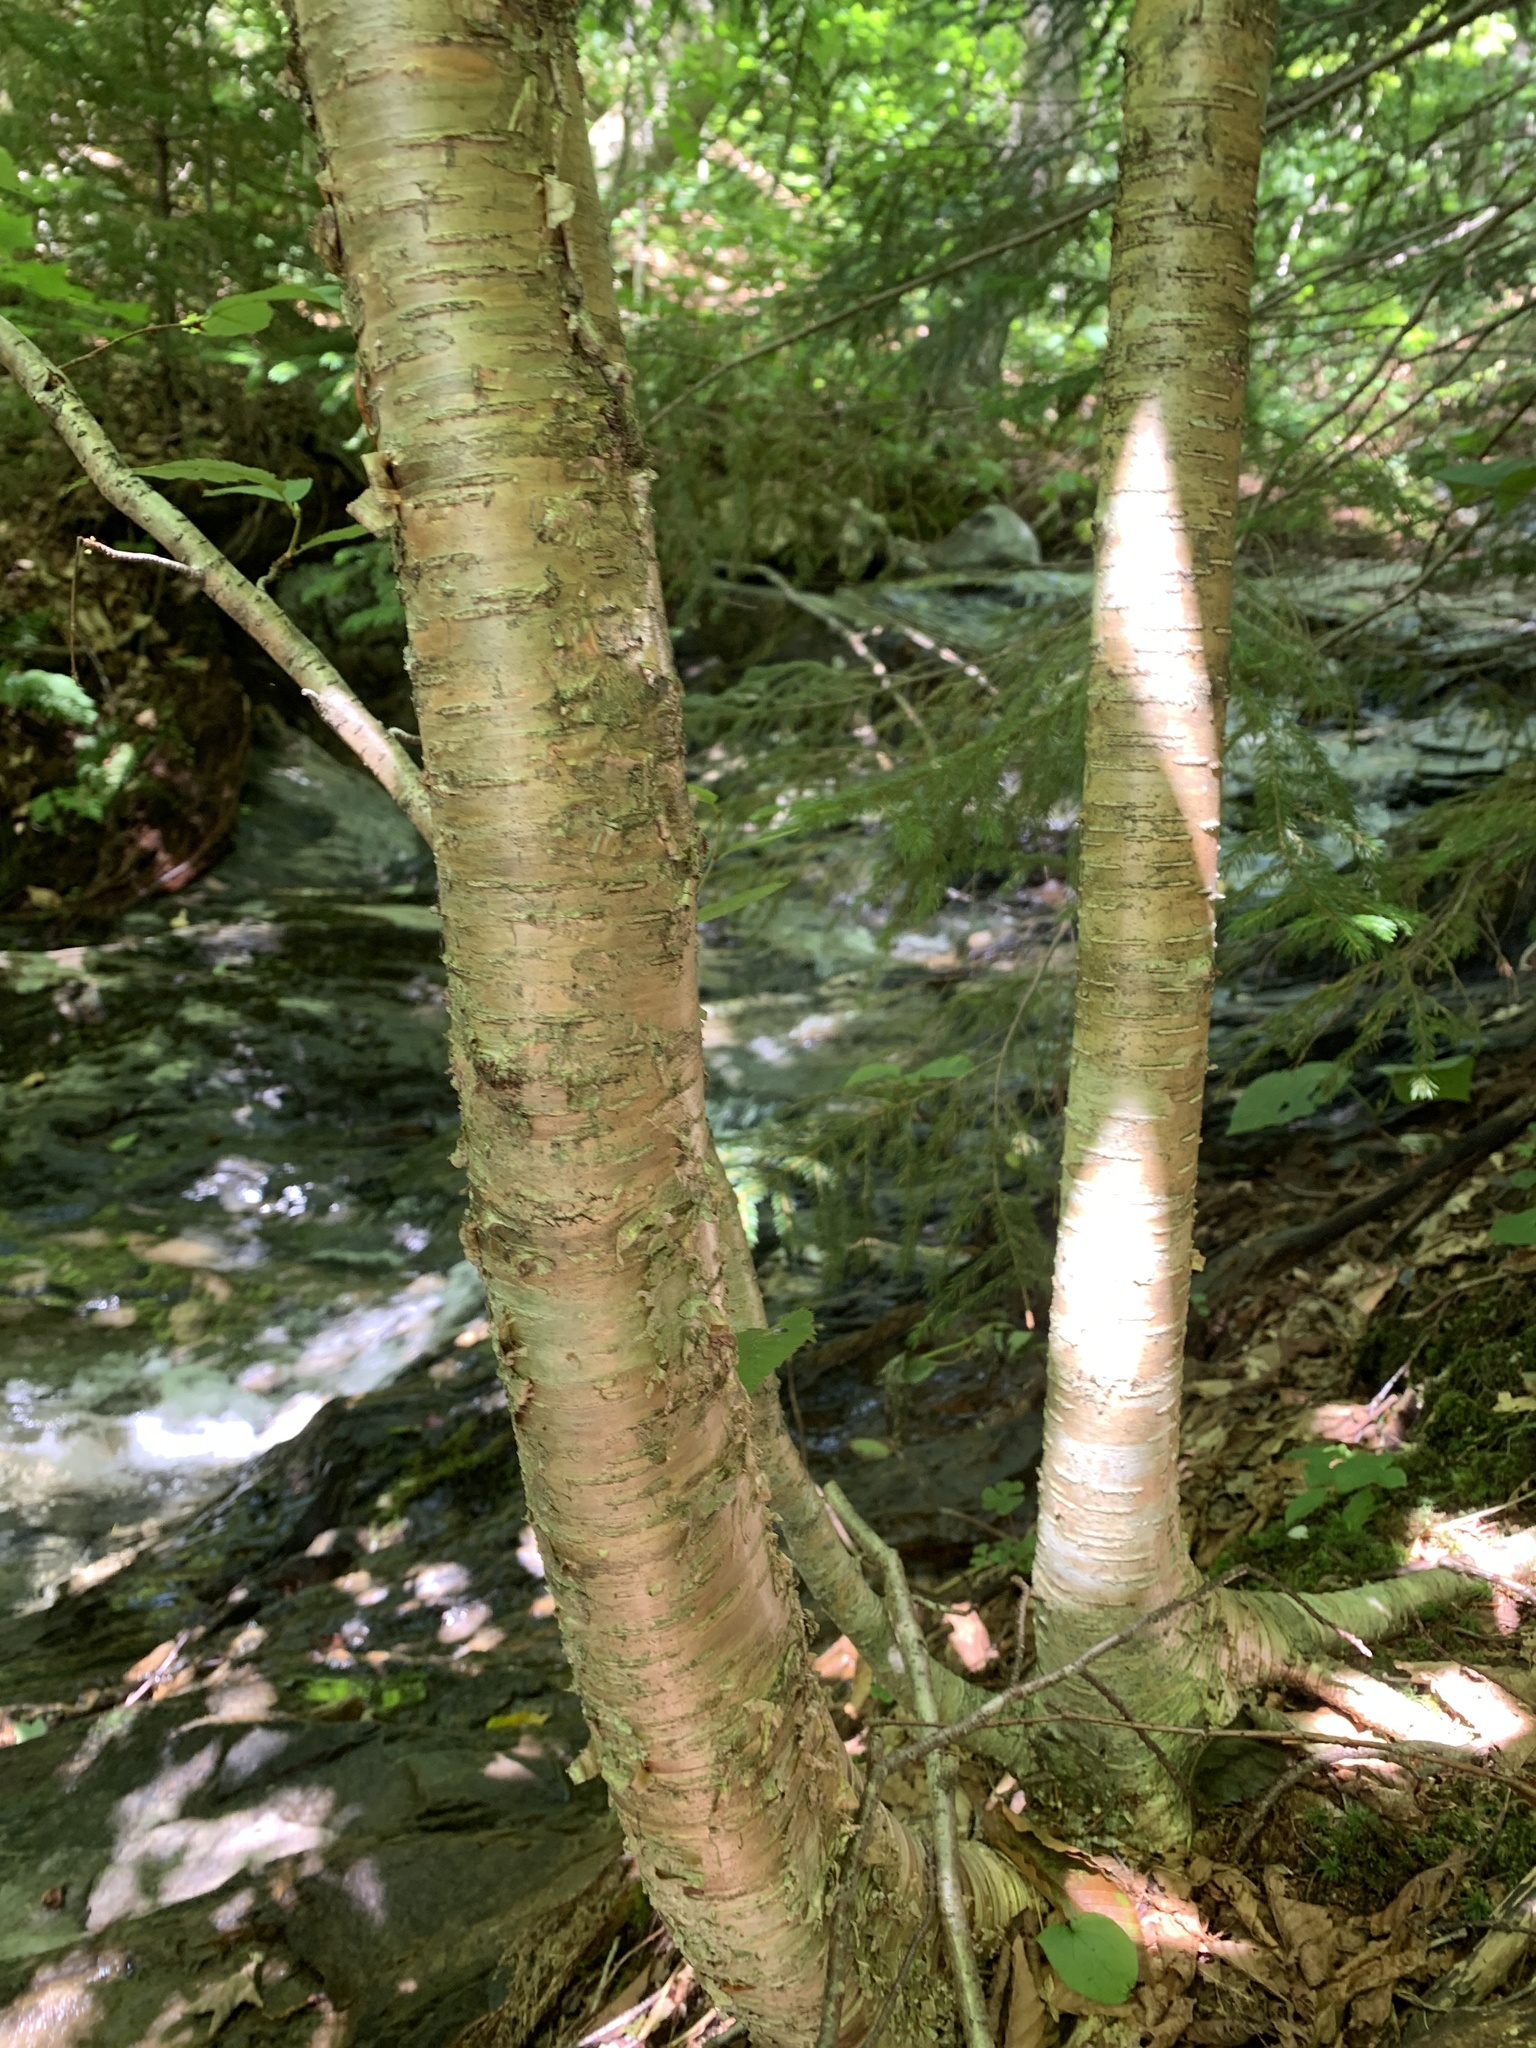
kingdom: Plantae
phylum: Tracheophyta
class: Magnoliopsida
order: Fagales
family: Betulaceae
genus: Betula
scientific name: Betula alleghaniensis
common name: Yellow birch
